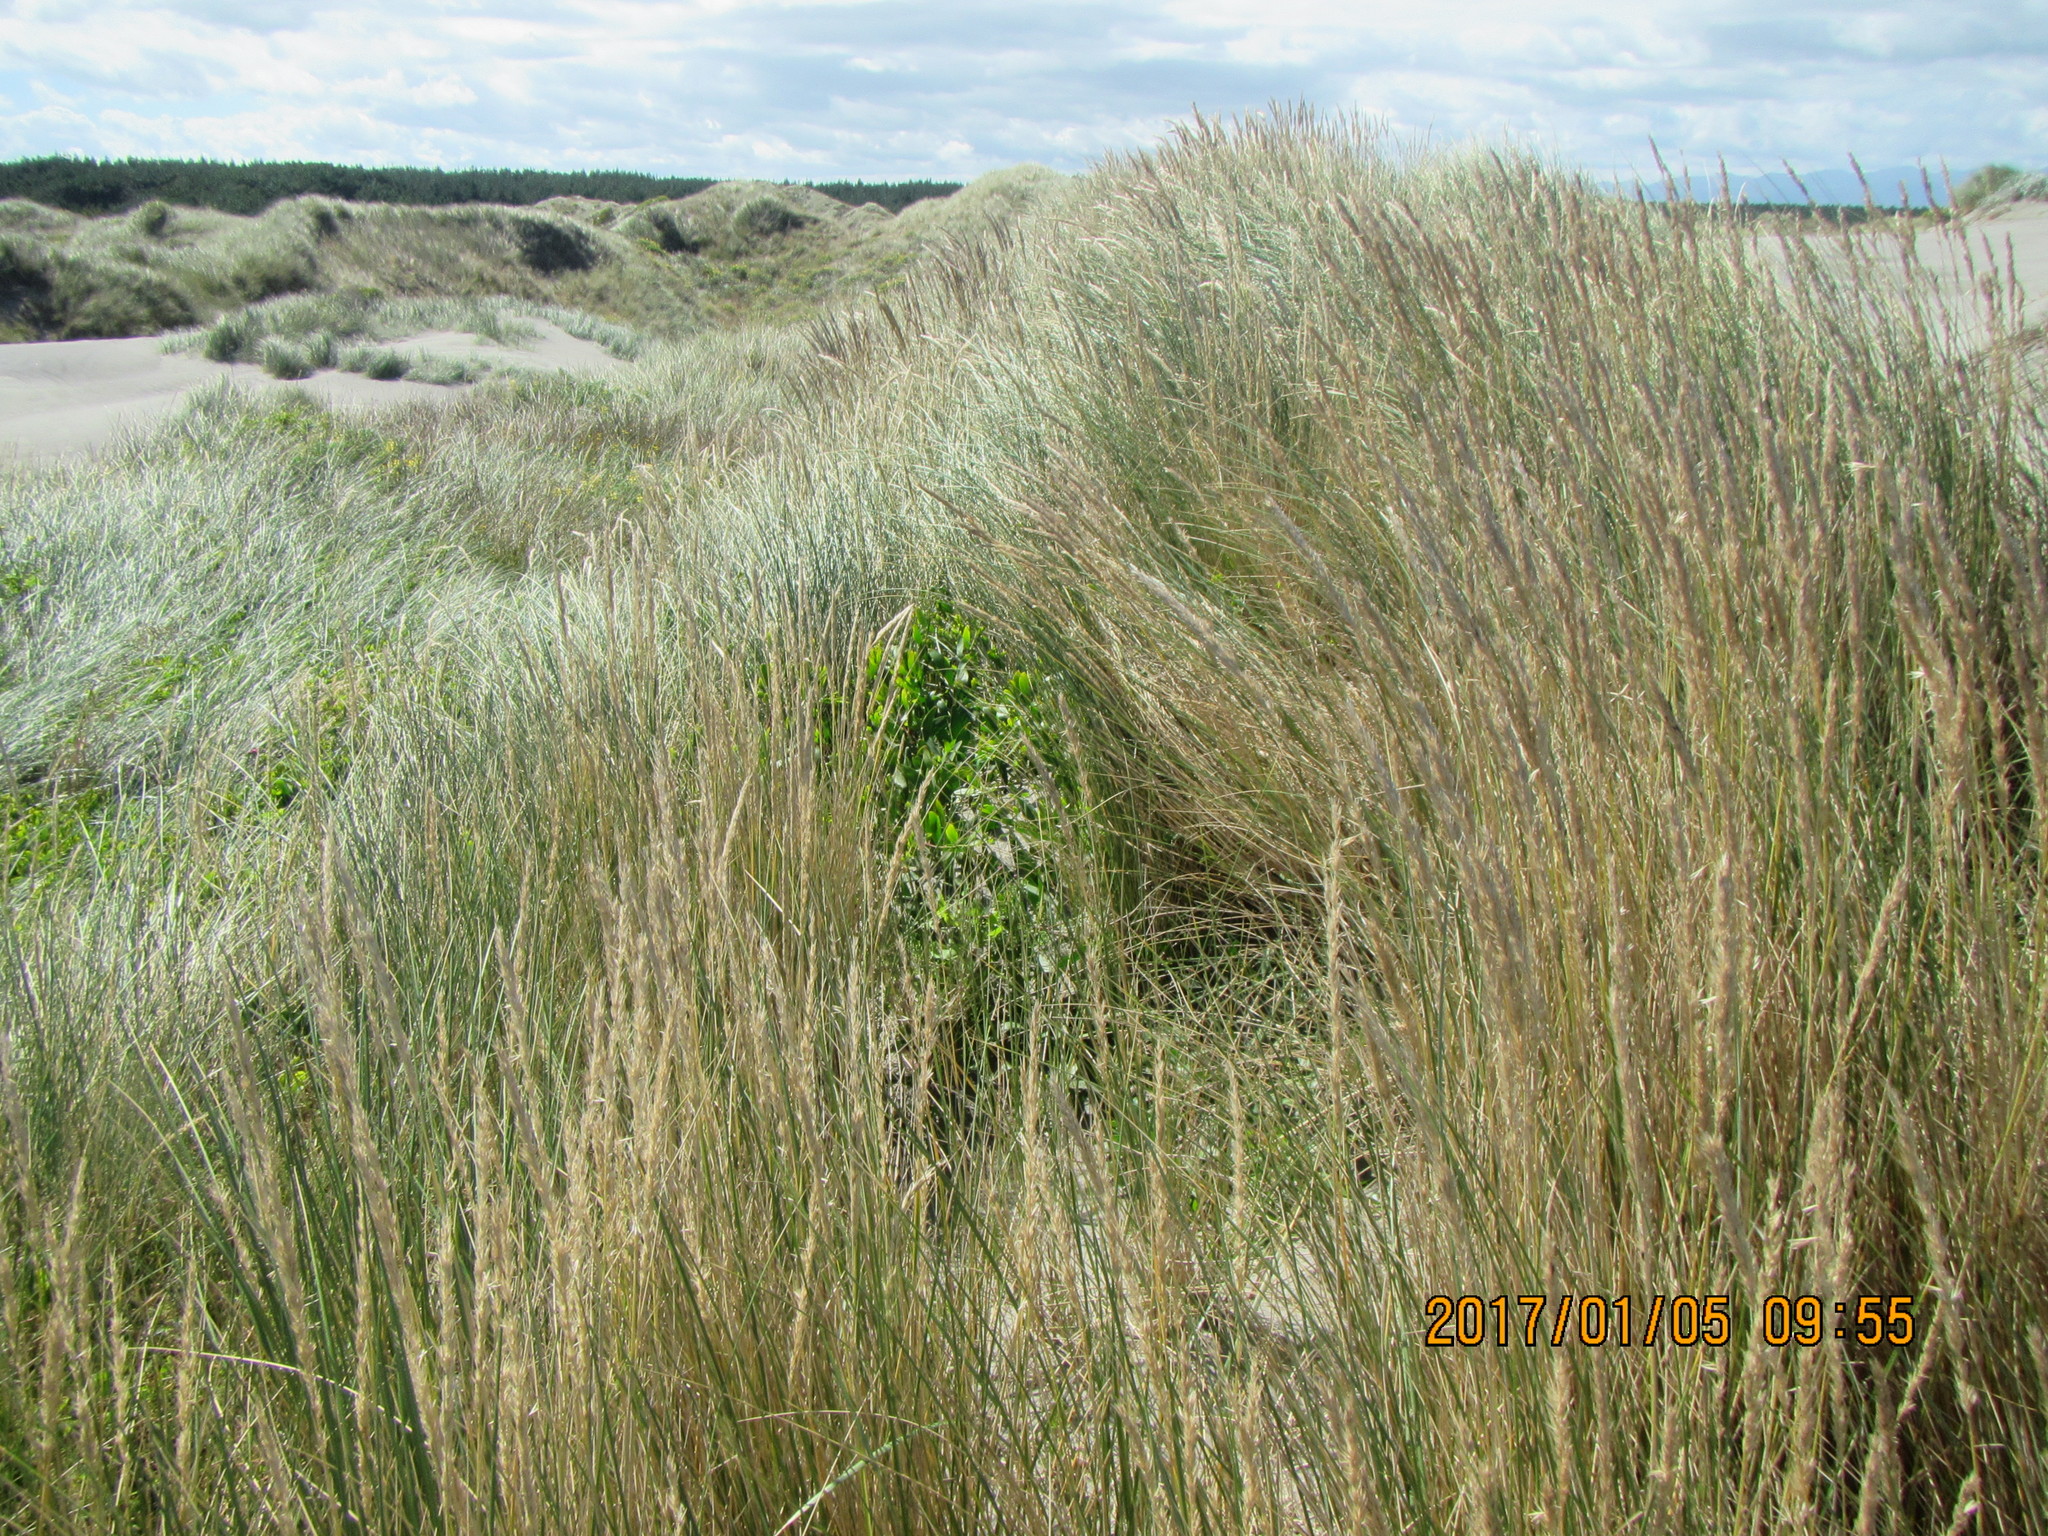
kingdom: Plantae
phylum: Tracheophyta
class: Magnoliopsida
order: Fabales
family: Fabaceae
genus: Acacia
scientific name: Acacia longifolia
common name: Sydney golden wattle
